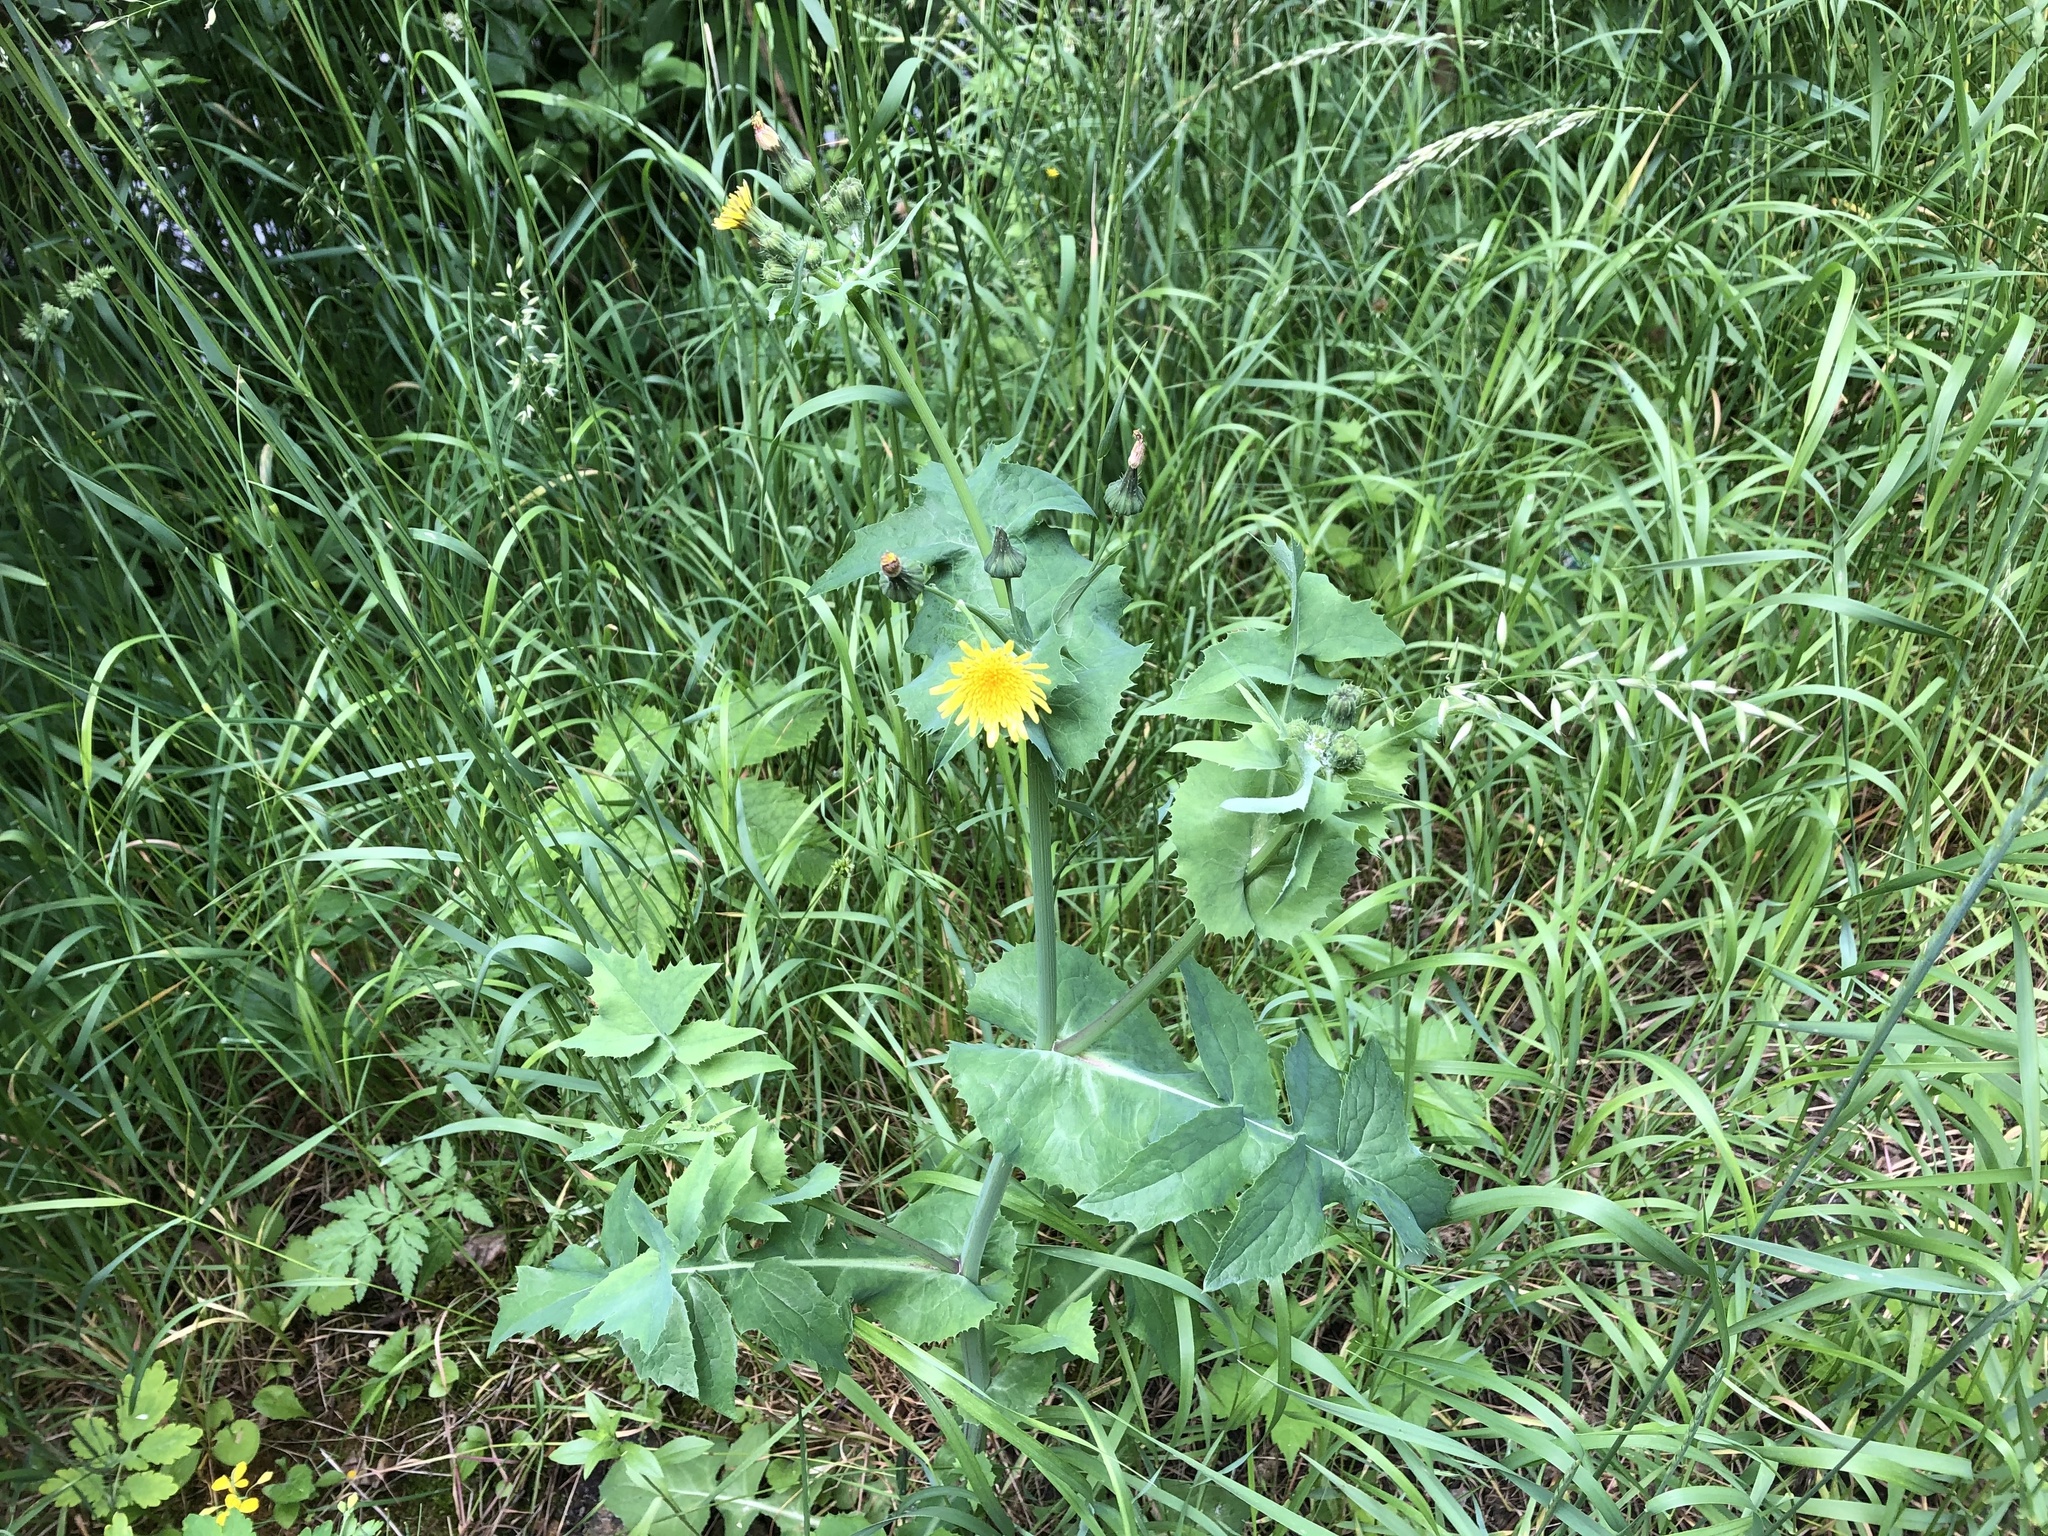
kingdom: Plantae
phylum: Tracheophyta
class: Magnoliopsida
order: Asterales
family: Asteraceae
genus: Sonchus
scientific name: Sonchus oleraceus
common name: Common sowthistle
